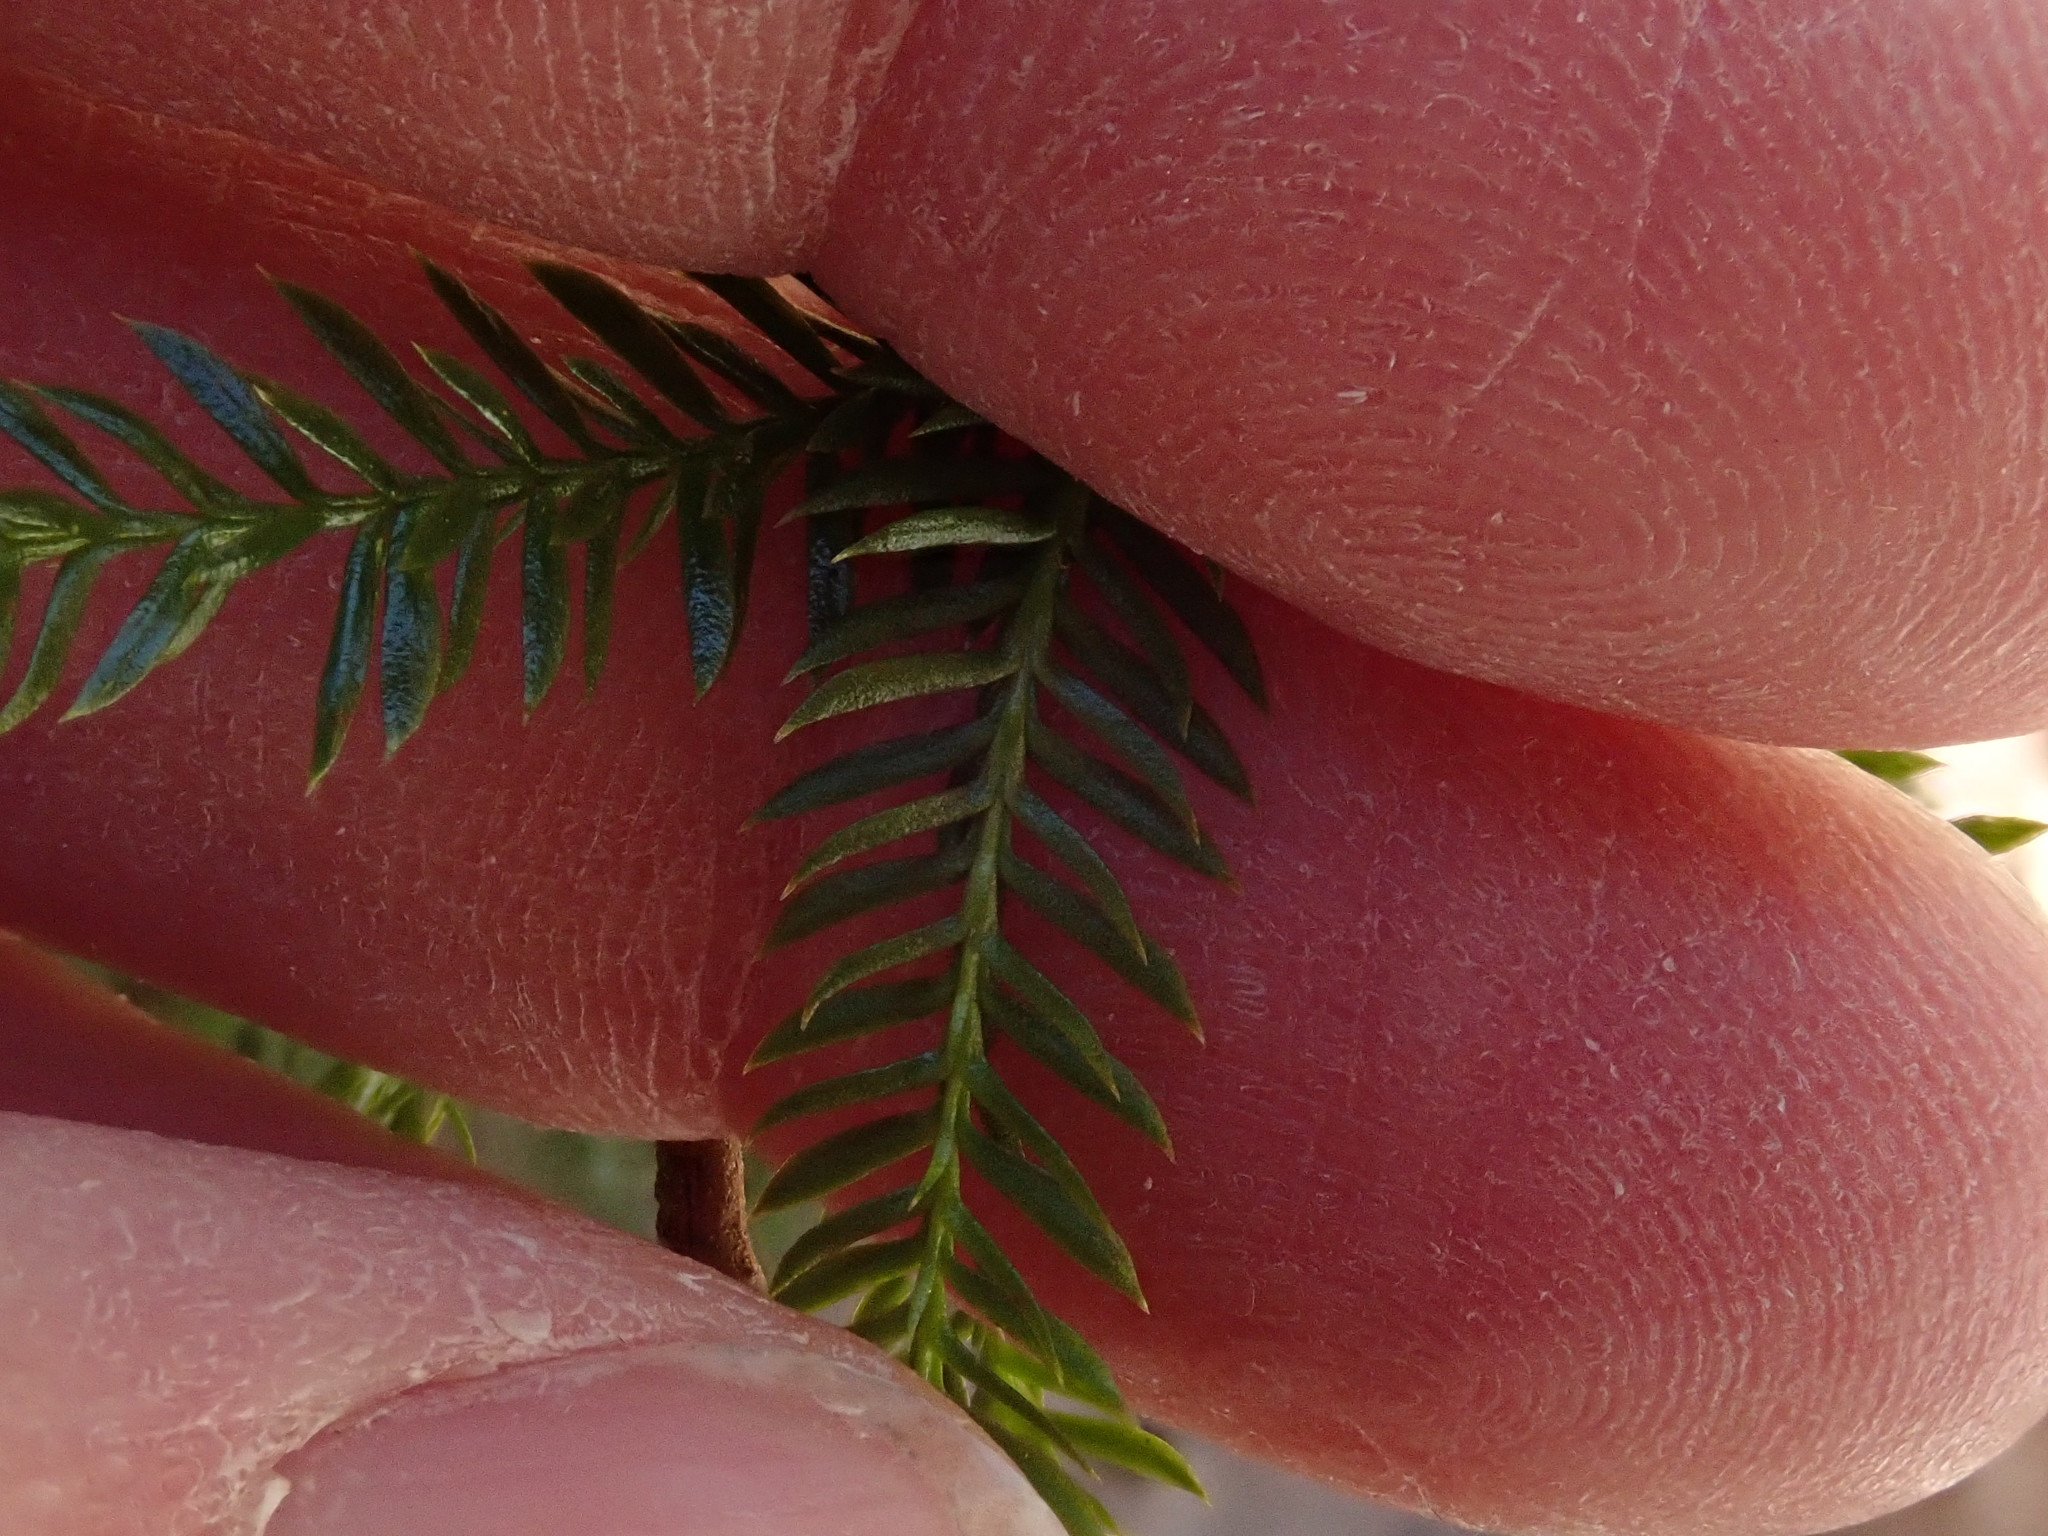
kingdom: Plantae
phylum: Tracheophyta
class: Lycopodiopsida
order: Lycopodiales
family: Lycopodiaceae
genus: Dendrolycopodium
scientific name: Dendrolycopodium obscurum
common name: Common ground-pine
